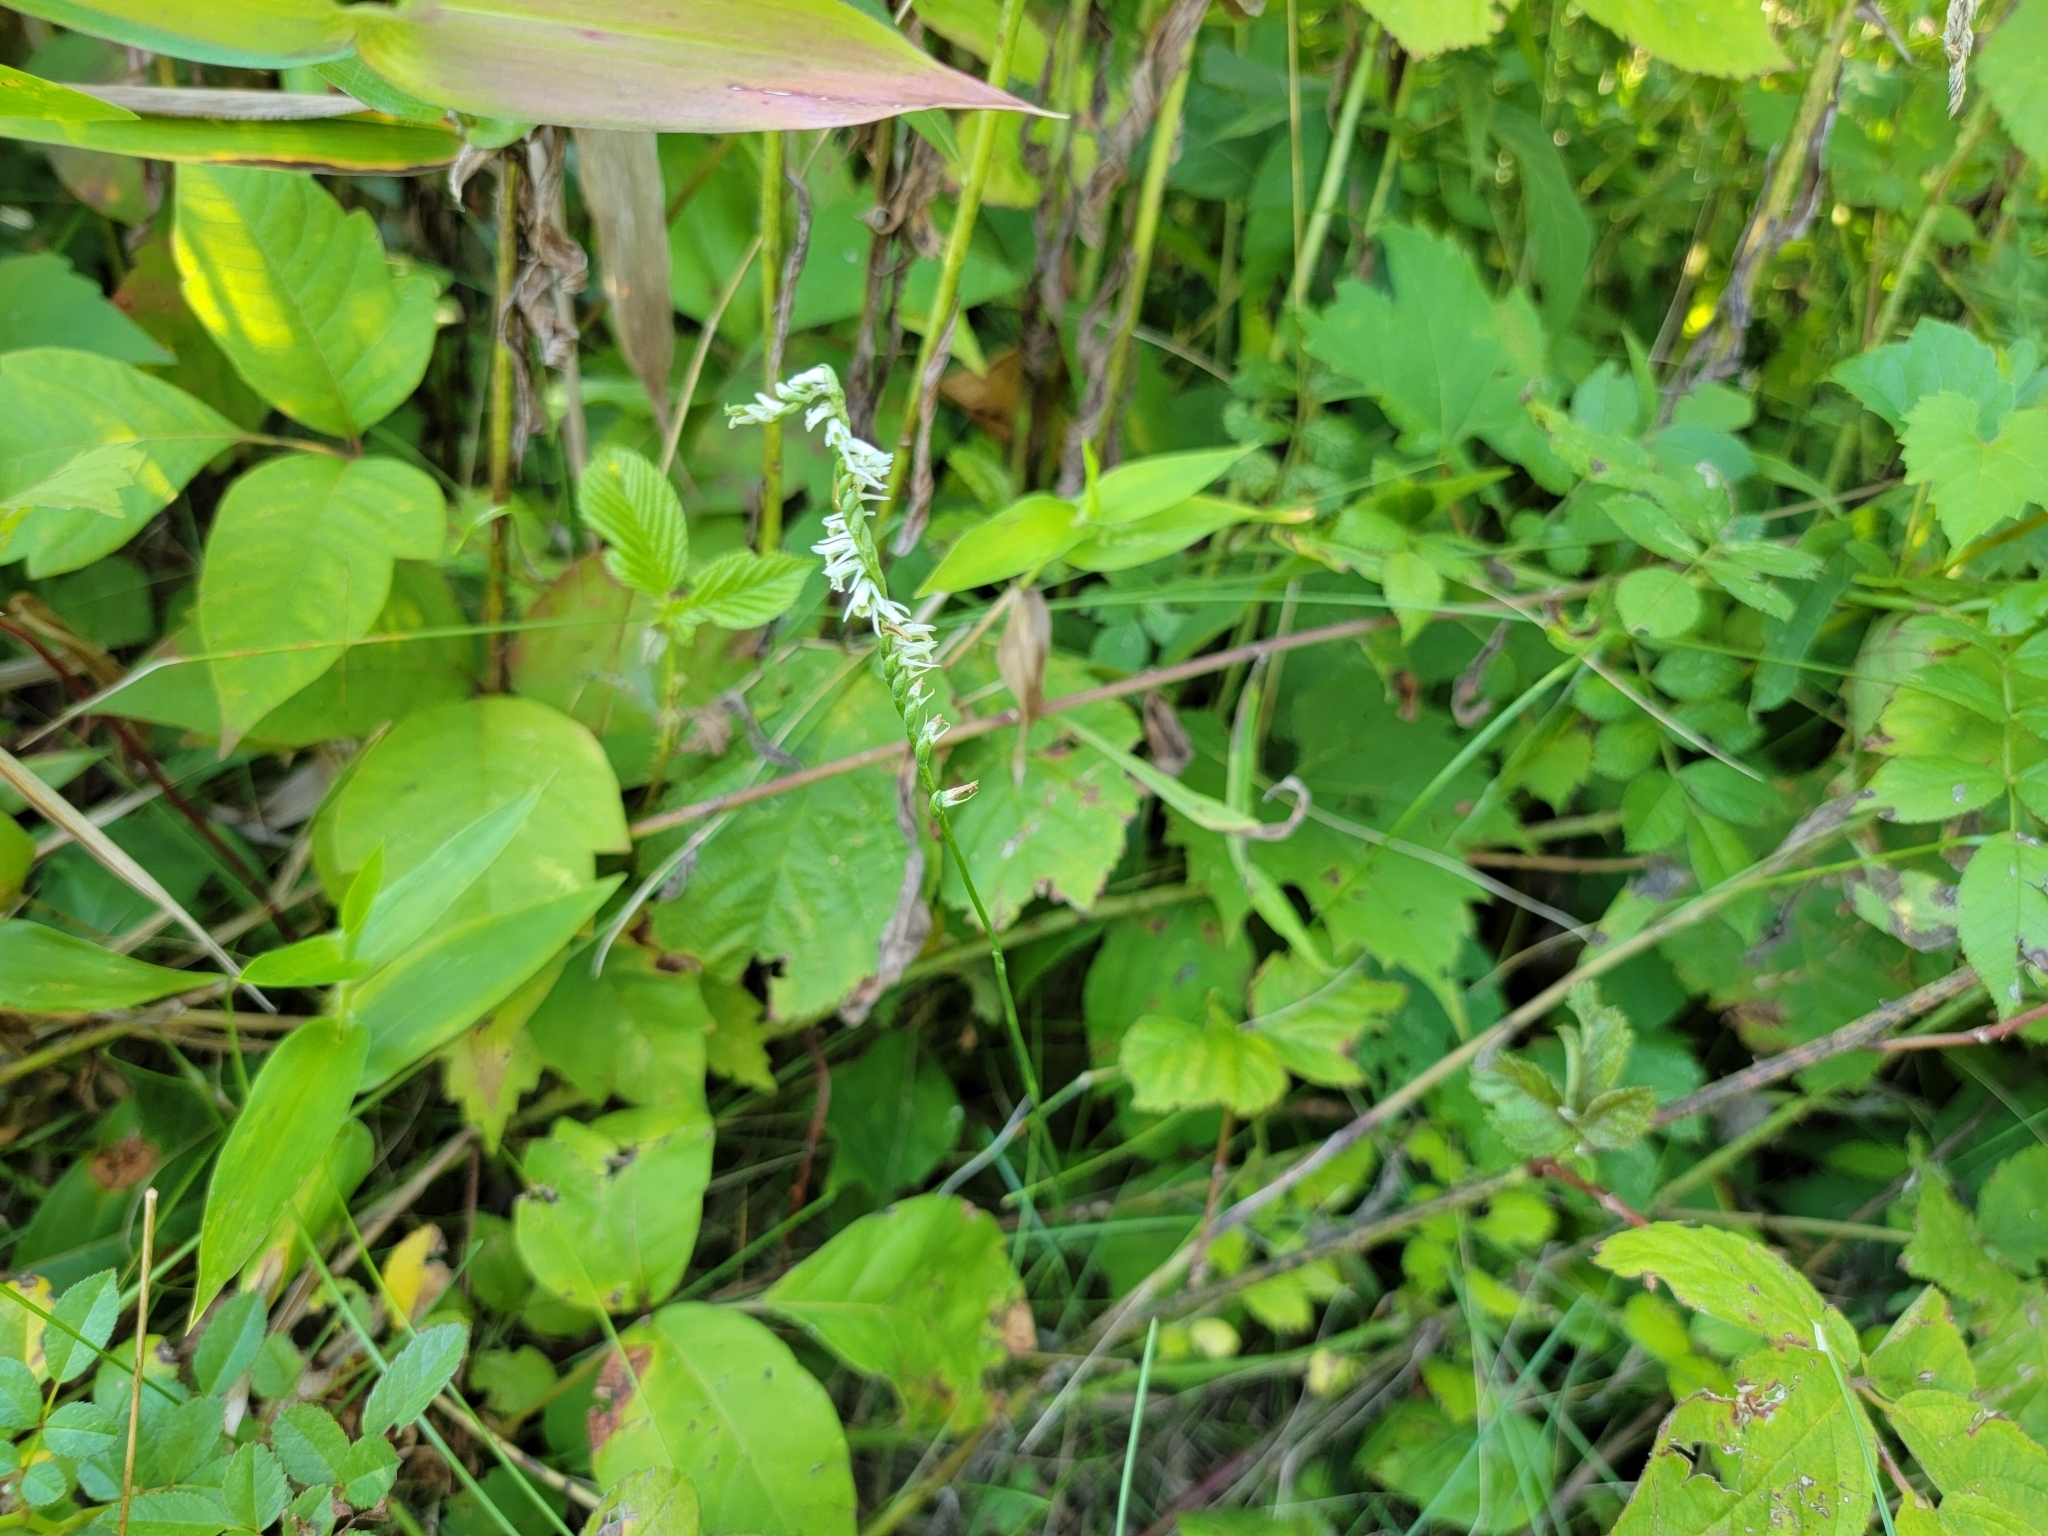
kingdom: Plantae
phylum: Tracheophyta
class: Liliopsida
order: Asparagales
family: Orchidaceae
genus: Spiranthes
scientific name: Spiranthes lacera
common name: Northern slender ladies'-tresses
